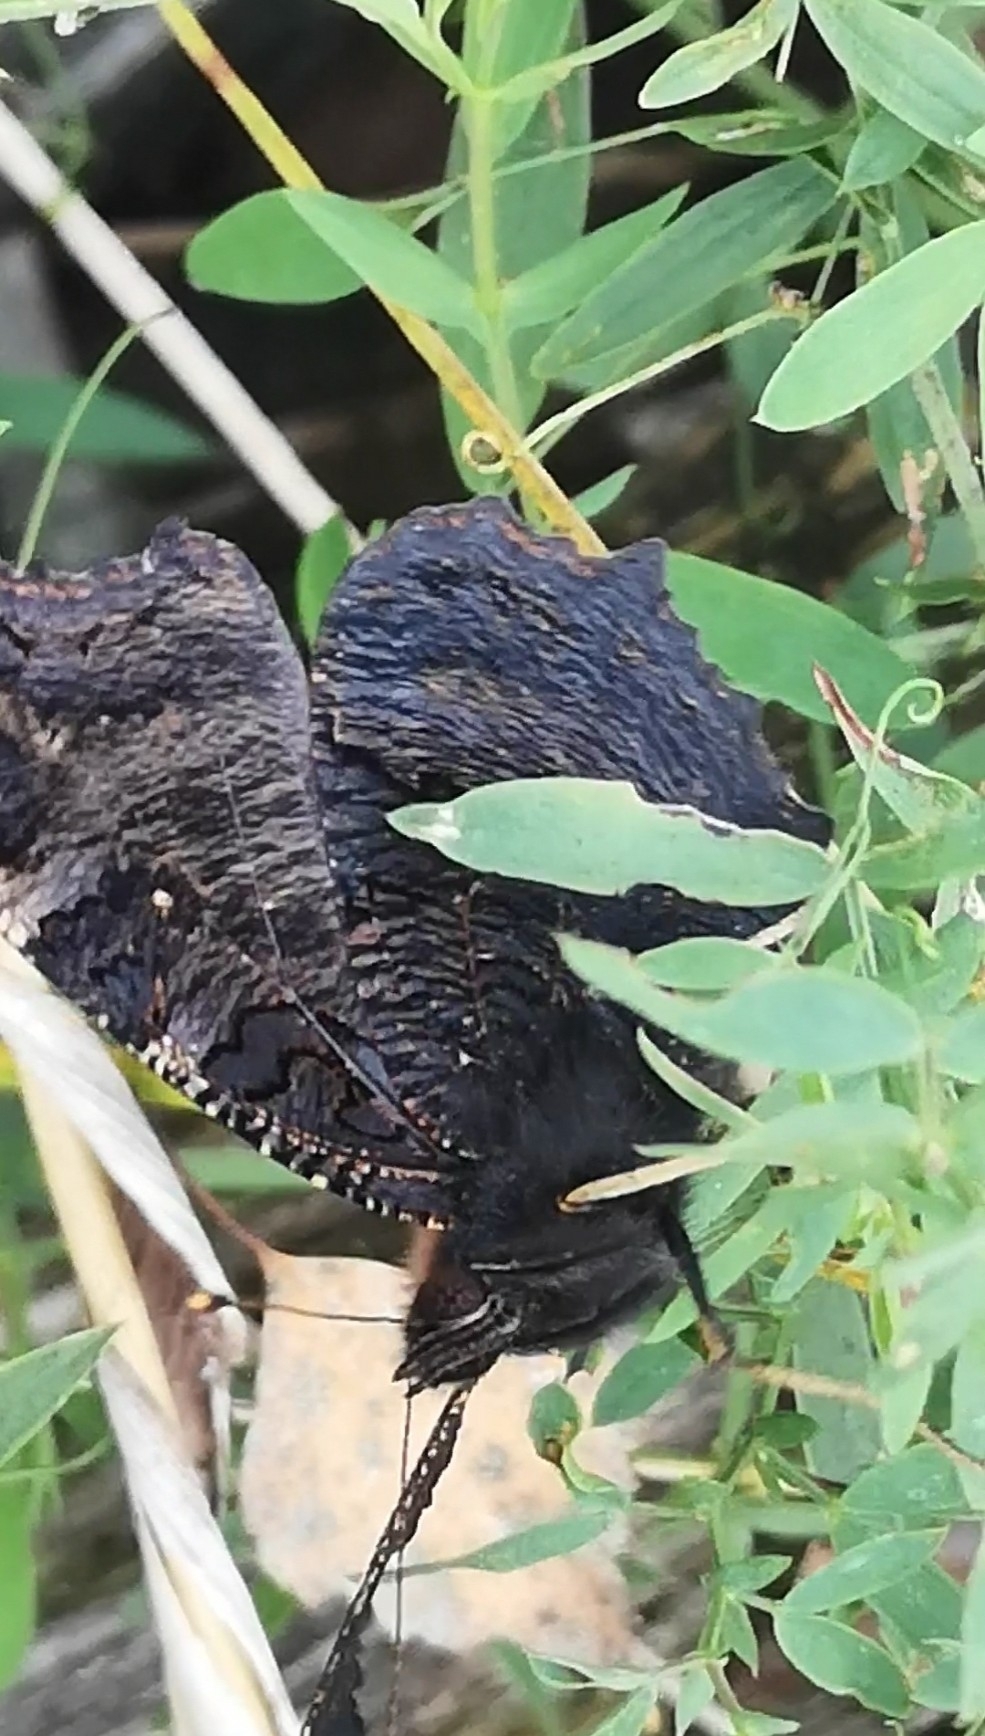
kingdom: Animalia
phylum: Arthropoda
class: Insecta
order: Lepidoptera
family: Nymphalidae
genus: Aglais
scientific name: Aglais io
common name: Peacock
